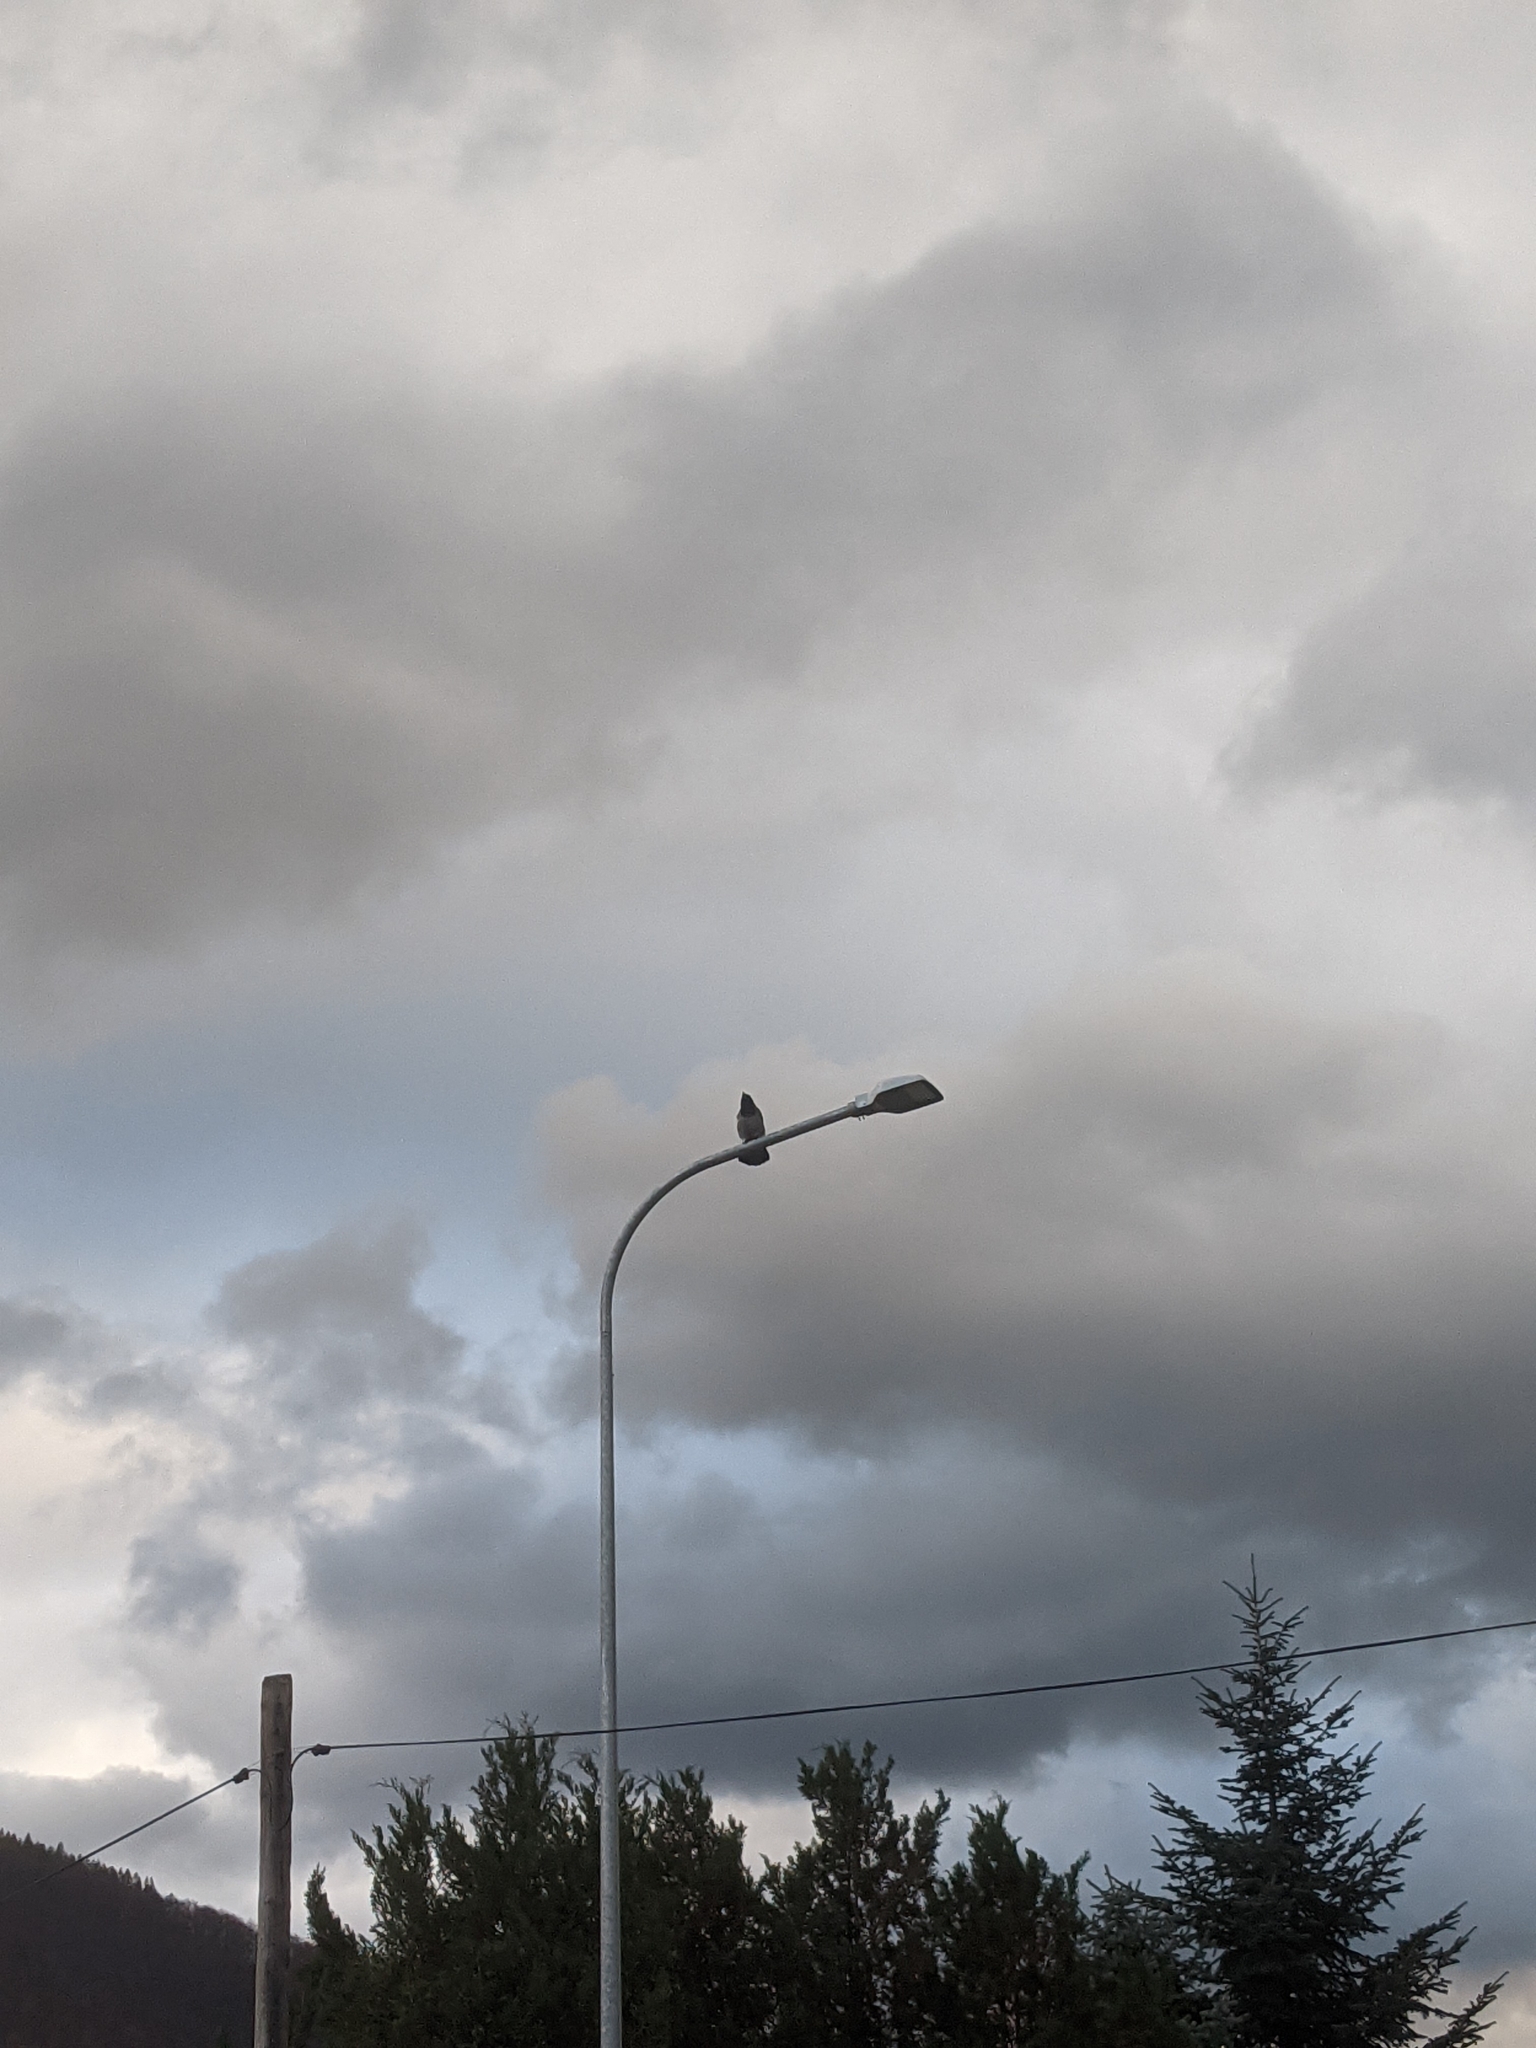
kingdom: Animalia
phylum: Chordata
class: Aves
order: Passeriformes
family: Corvidae
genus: Corvus
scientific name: Corvus cornix
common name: Hooded crow
